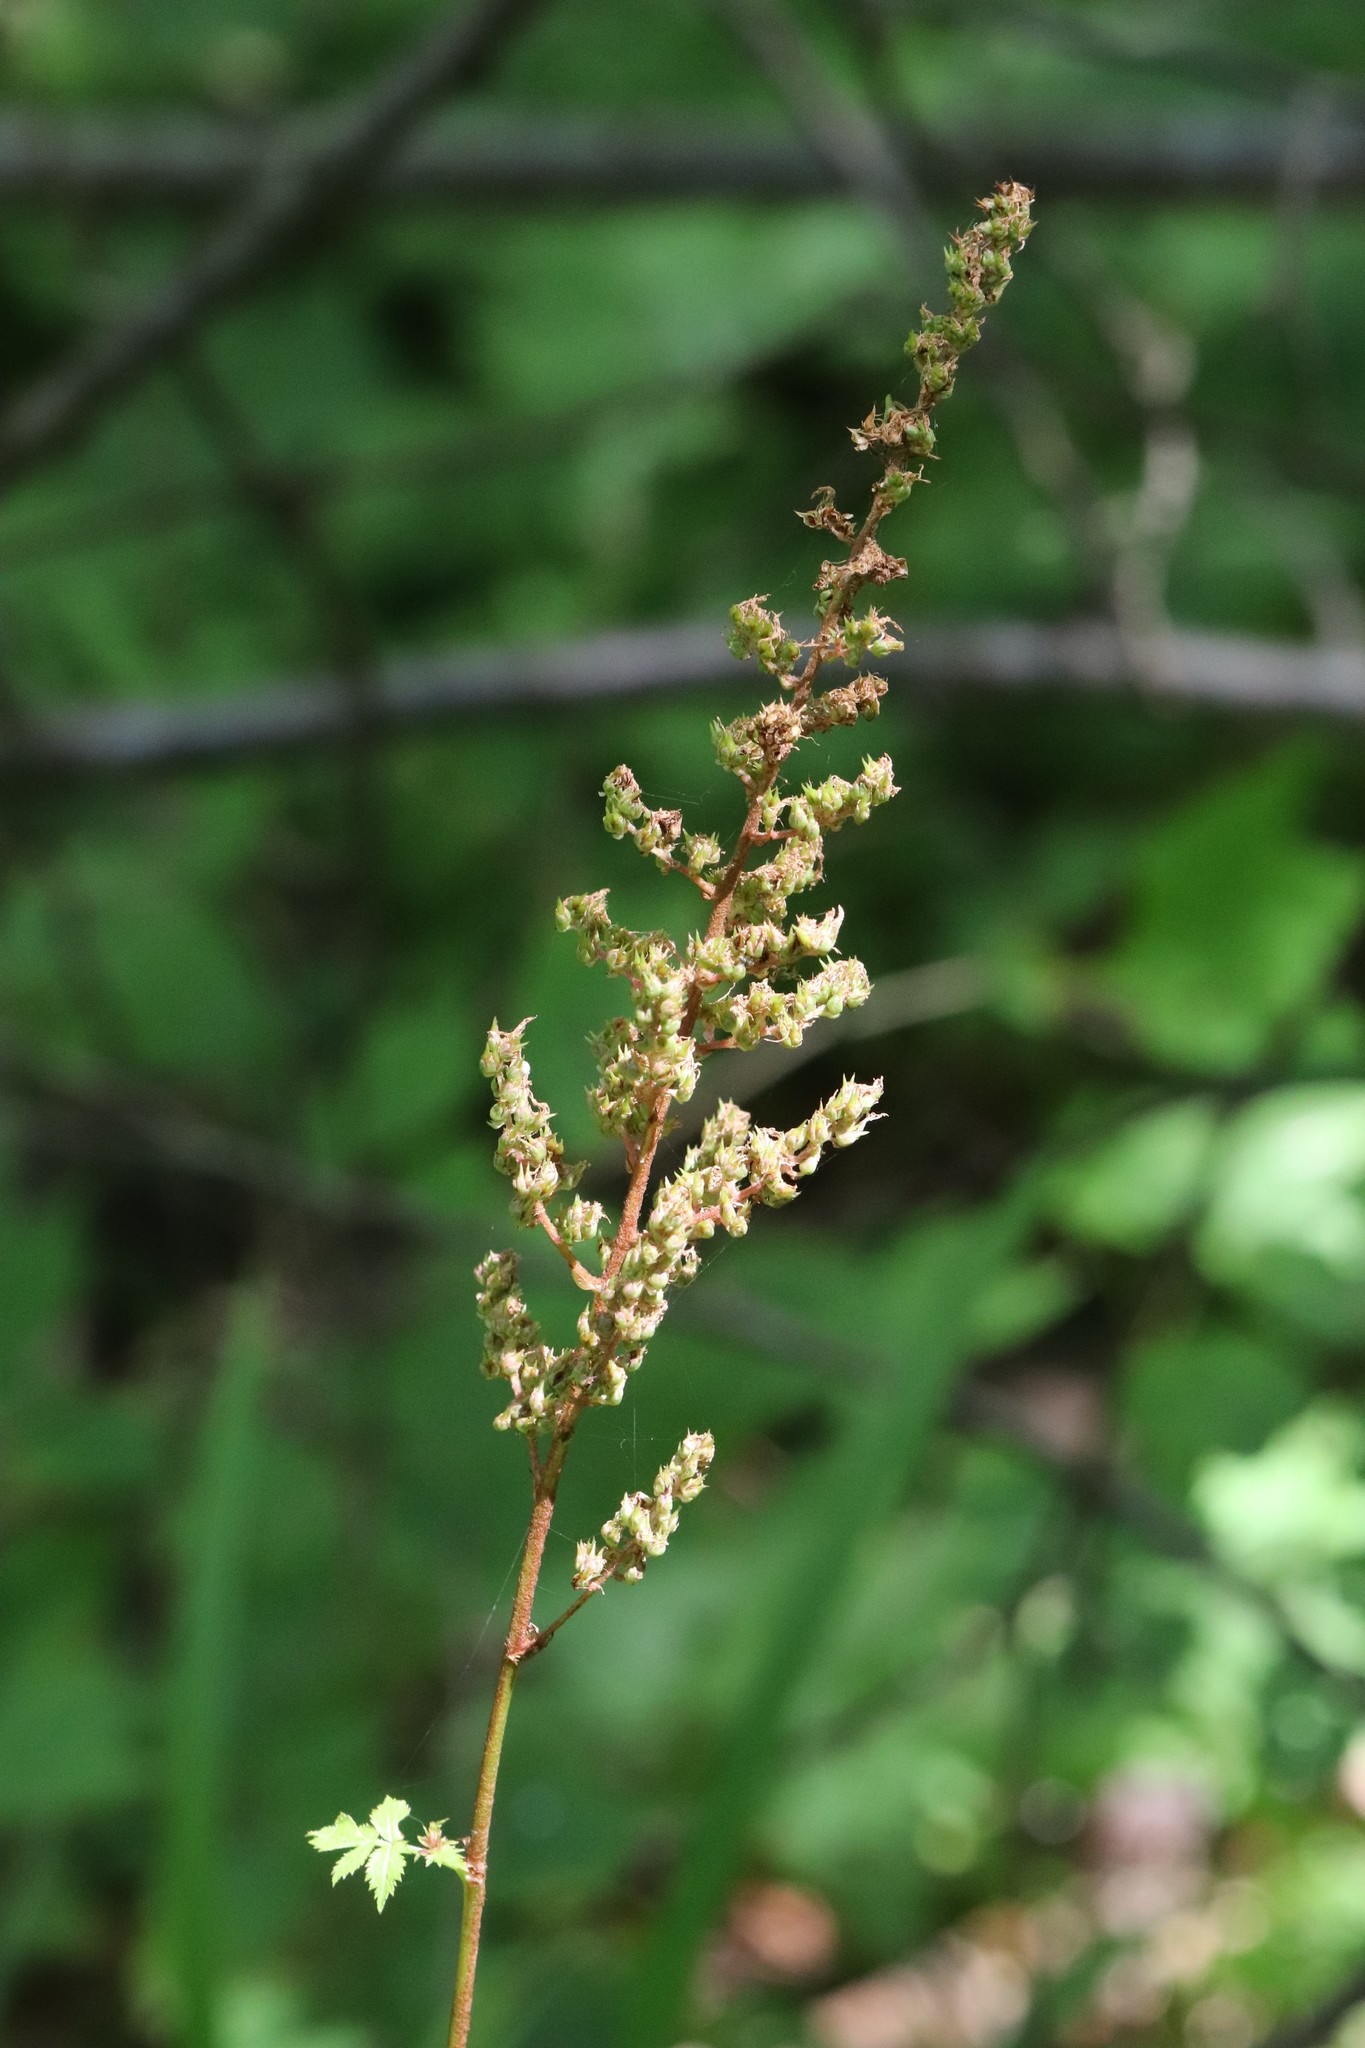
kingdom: Plantae
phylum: Tracheophyta
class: Magnoliopsida
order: Saxifragales
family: Saxifragaceae
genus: Astilbe
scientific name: Astilbe rubra
